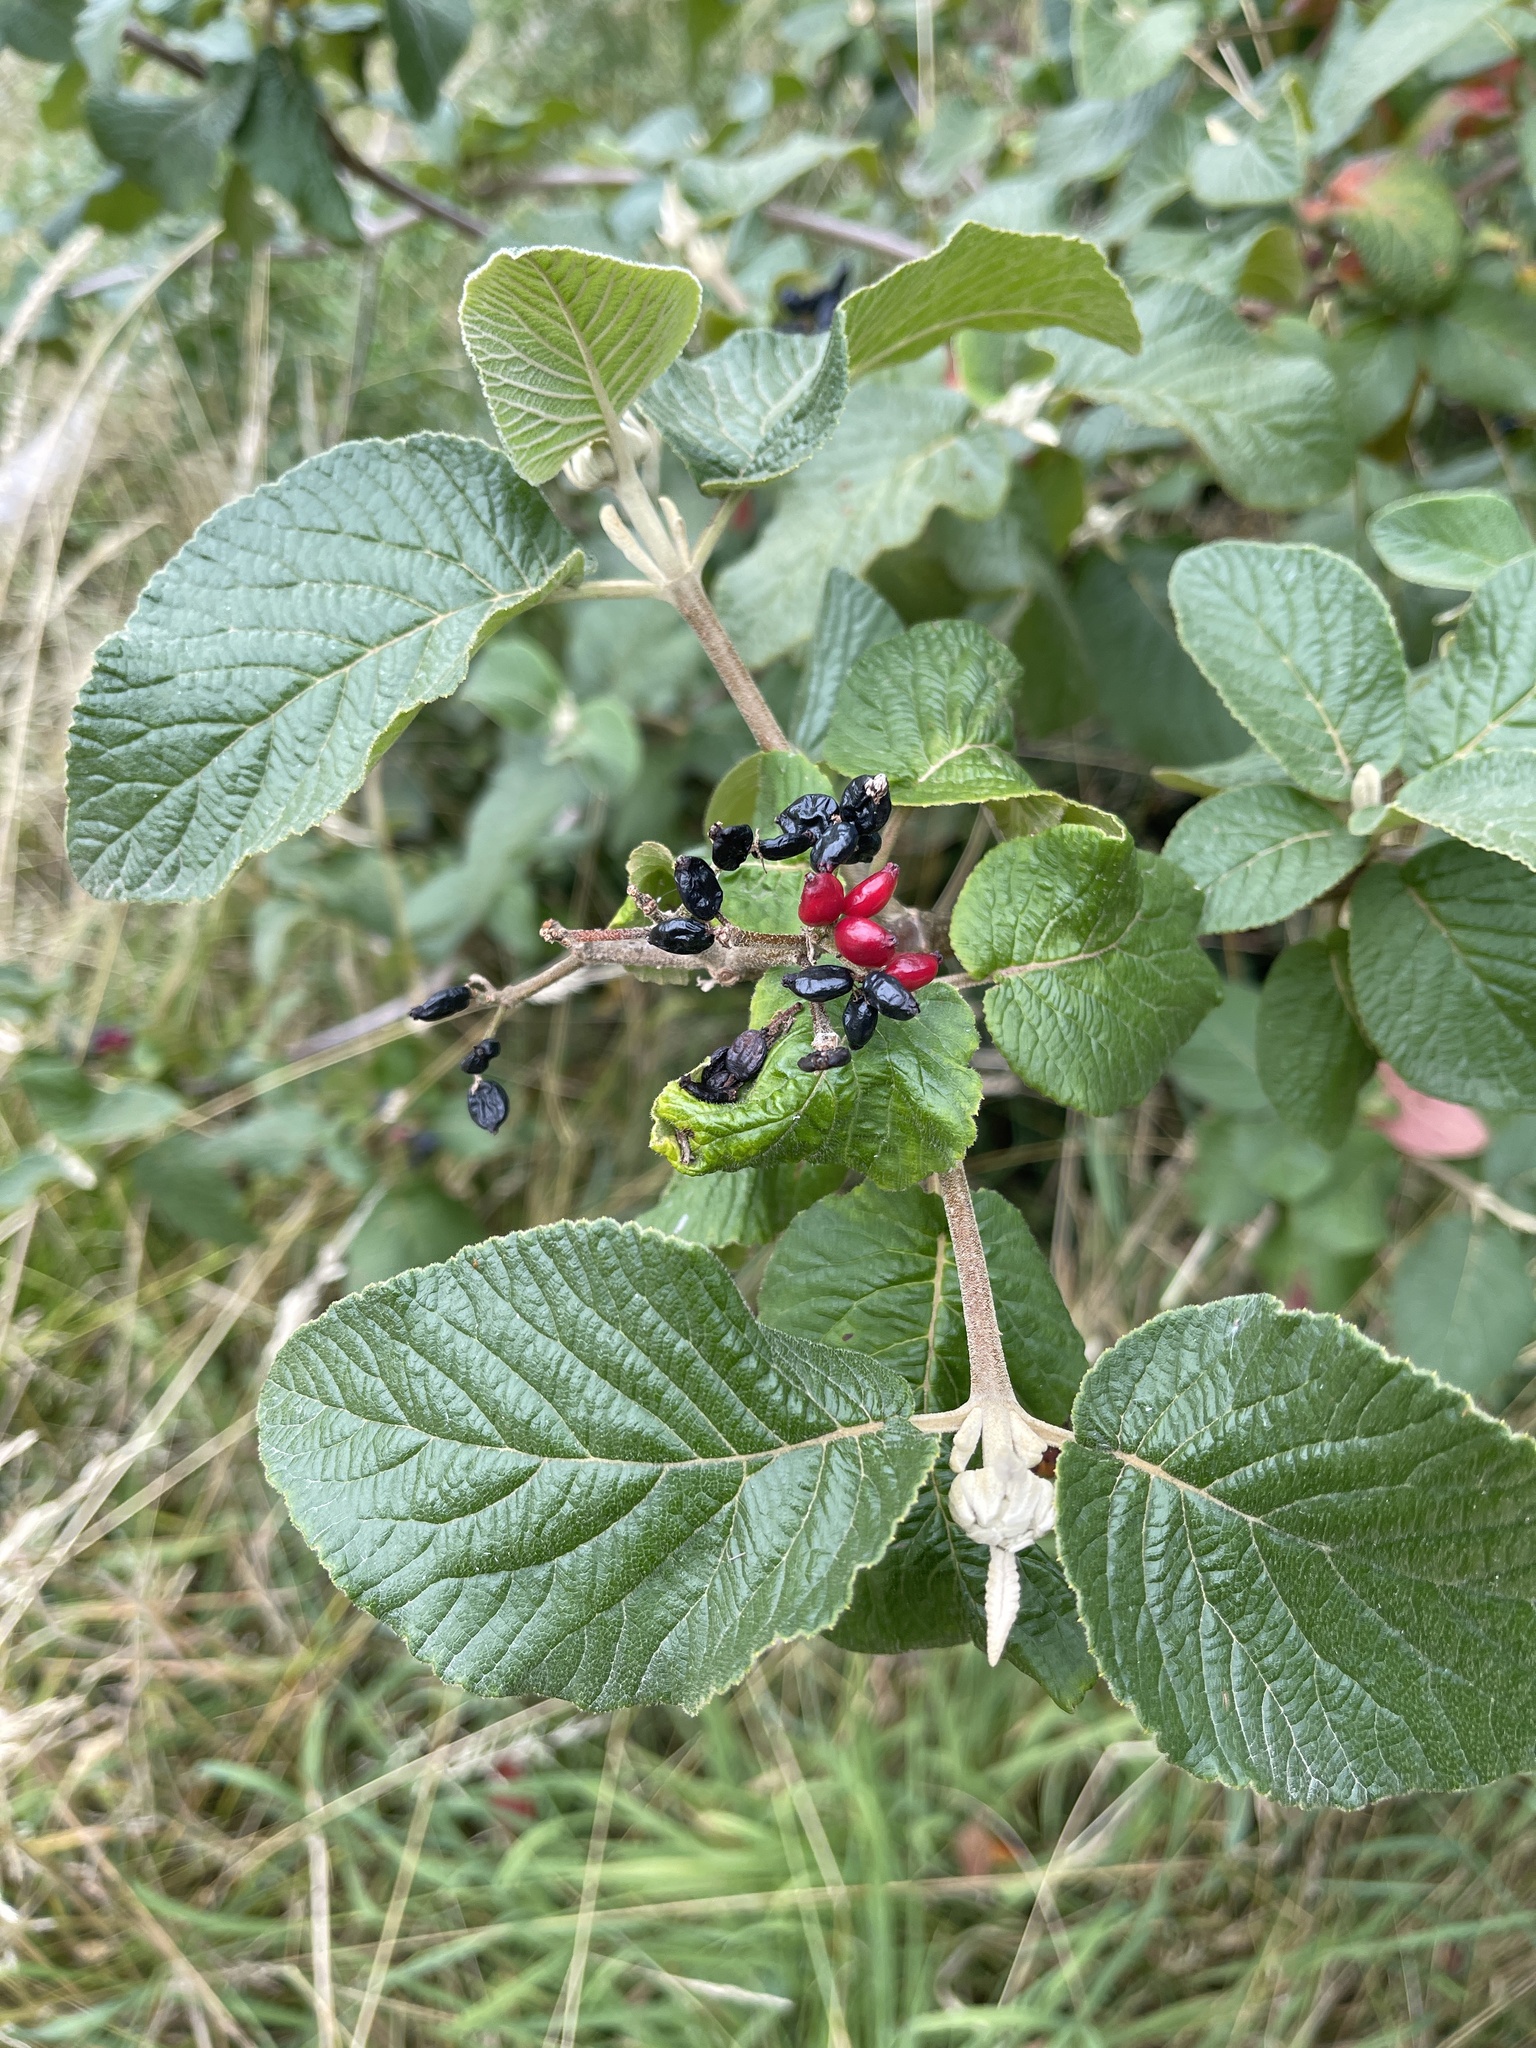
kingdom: Plantae
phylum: Tracheophyta
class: Magnoliopsida
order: Dipsacales
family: Viburnaceae
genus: Viburnum
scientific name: Viburnum lantana
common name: Wayfaring tree
